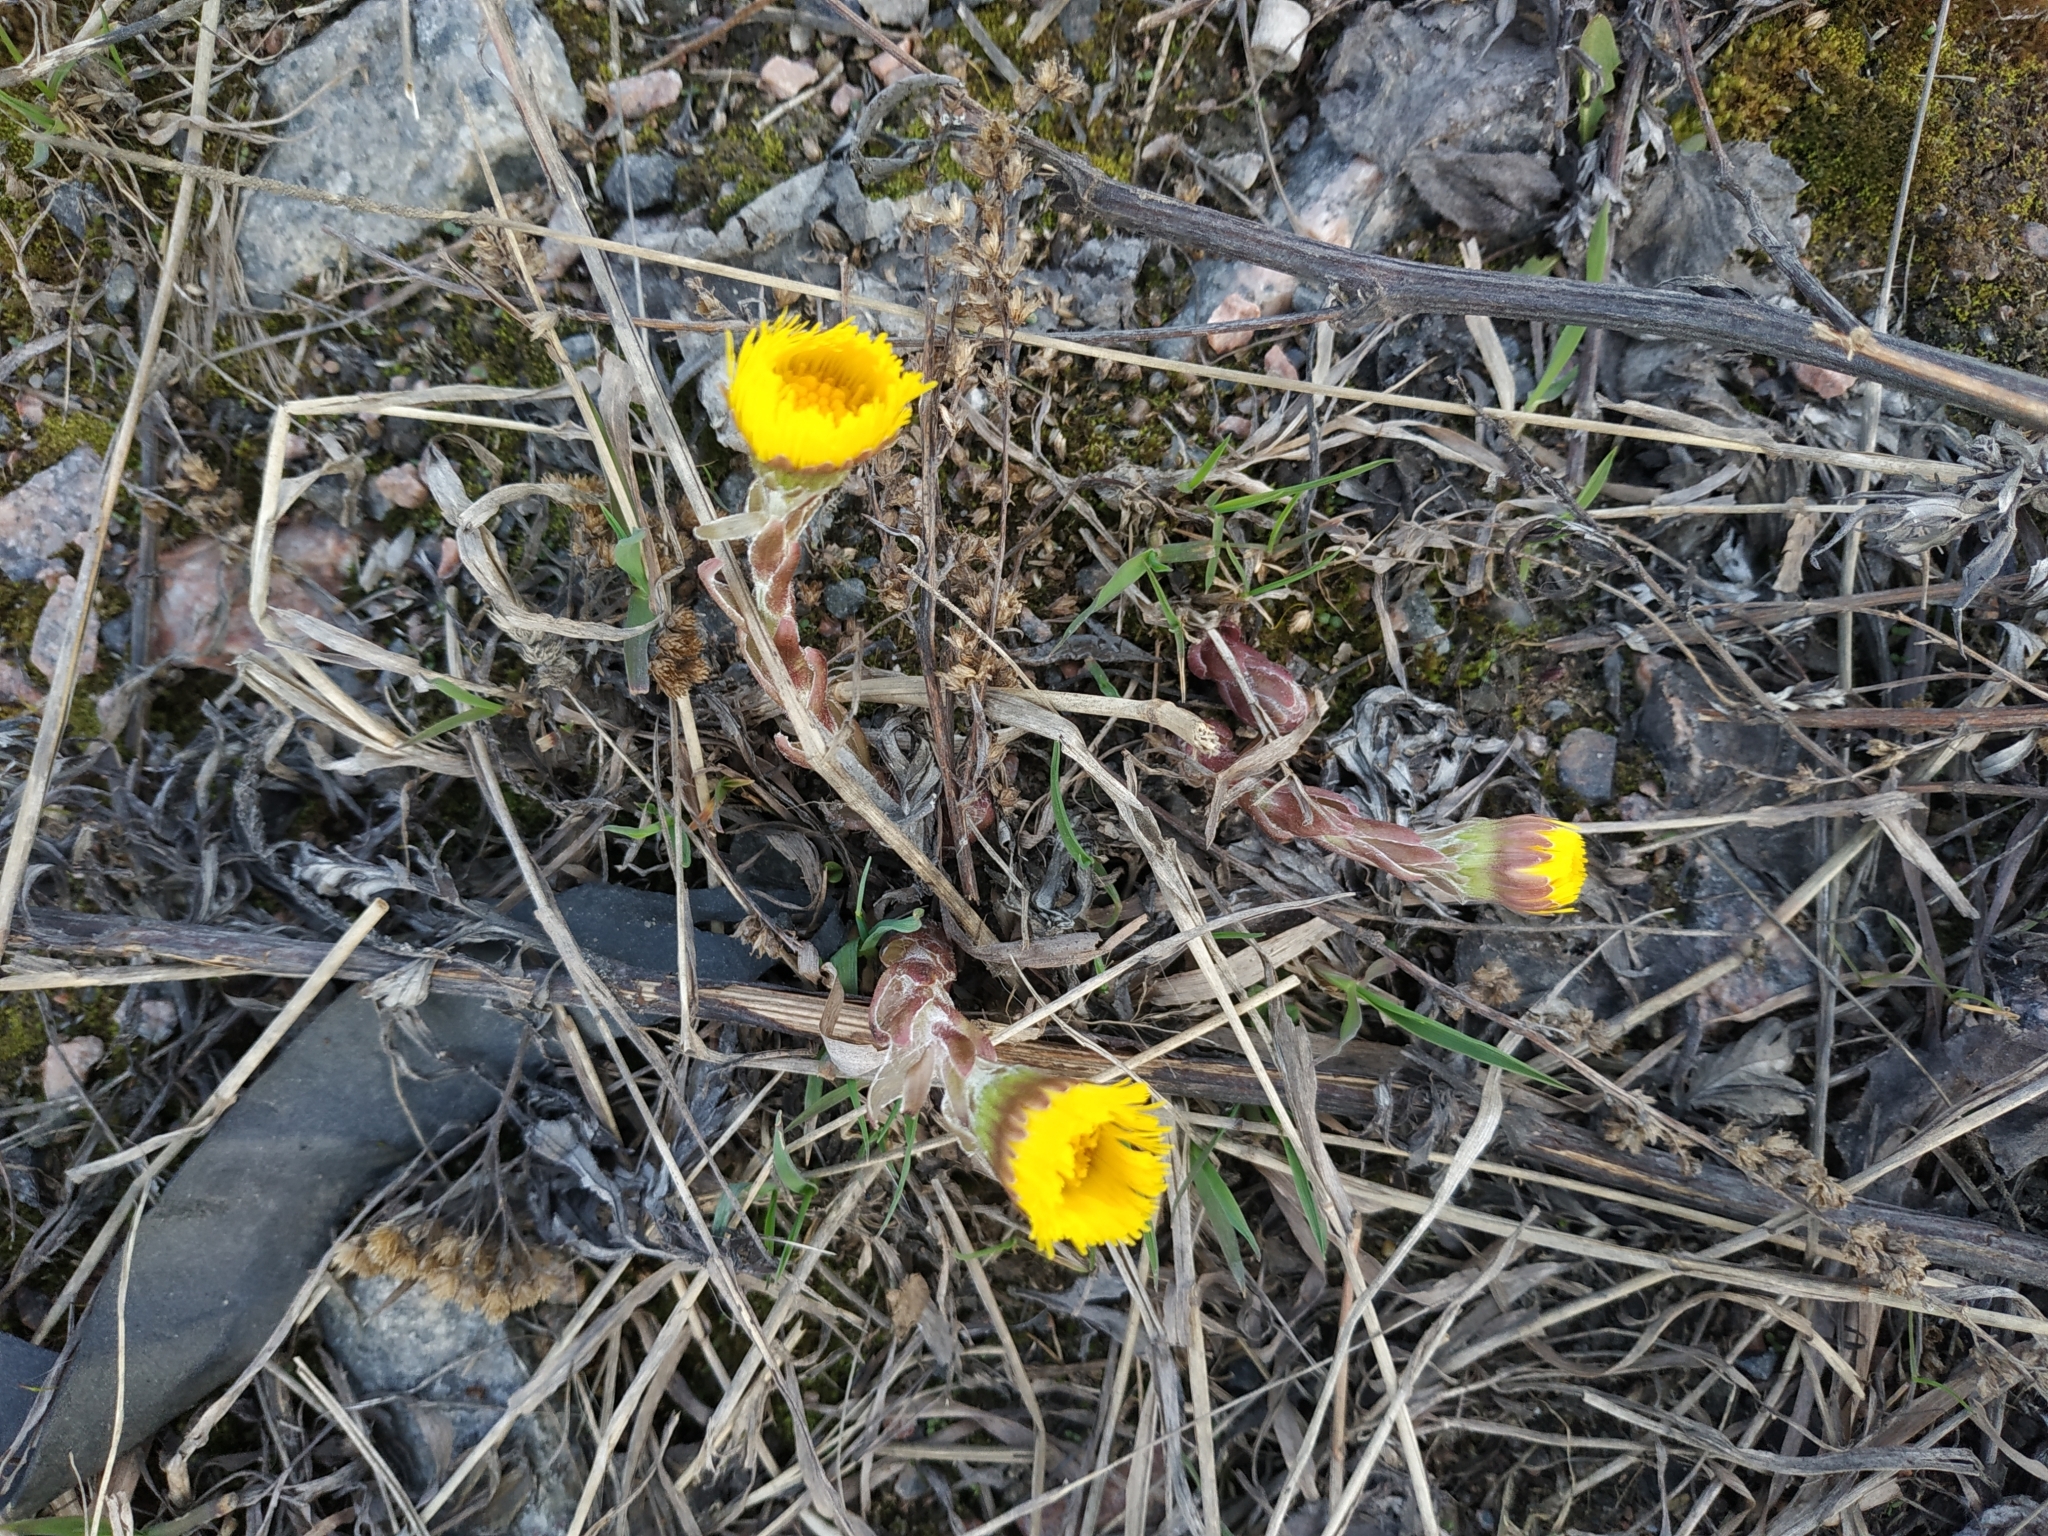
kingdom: Plantae
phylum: Tracheophyta
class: Magnoliopsida
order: Asterales
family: Asteraceae
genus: Tussilago
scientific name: Tussilago farfara
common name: Coltsfoot
